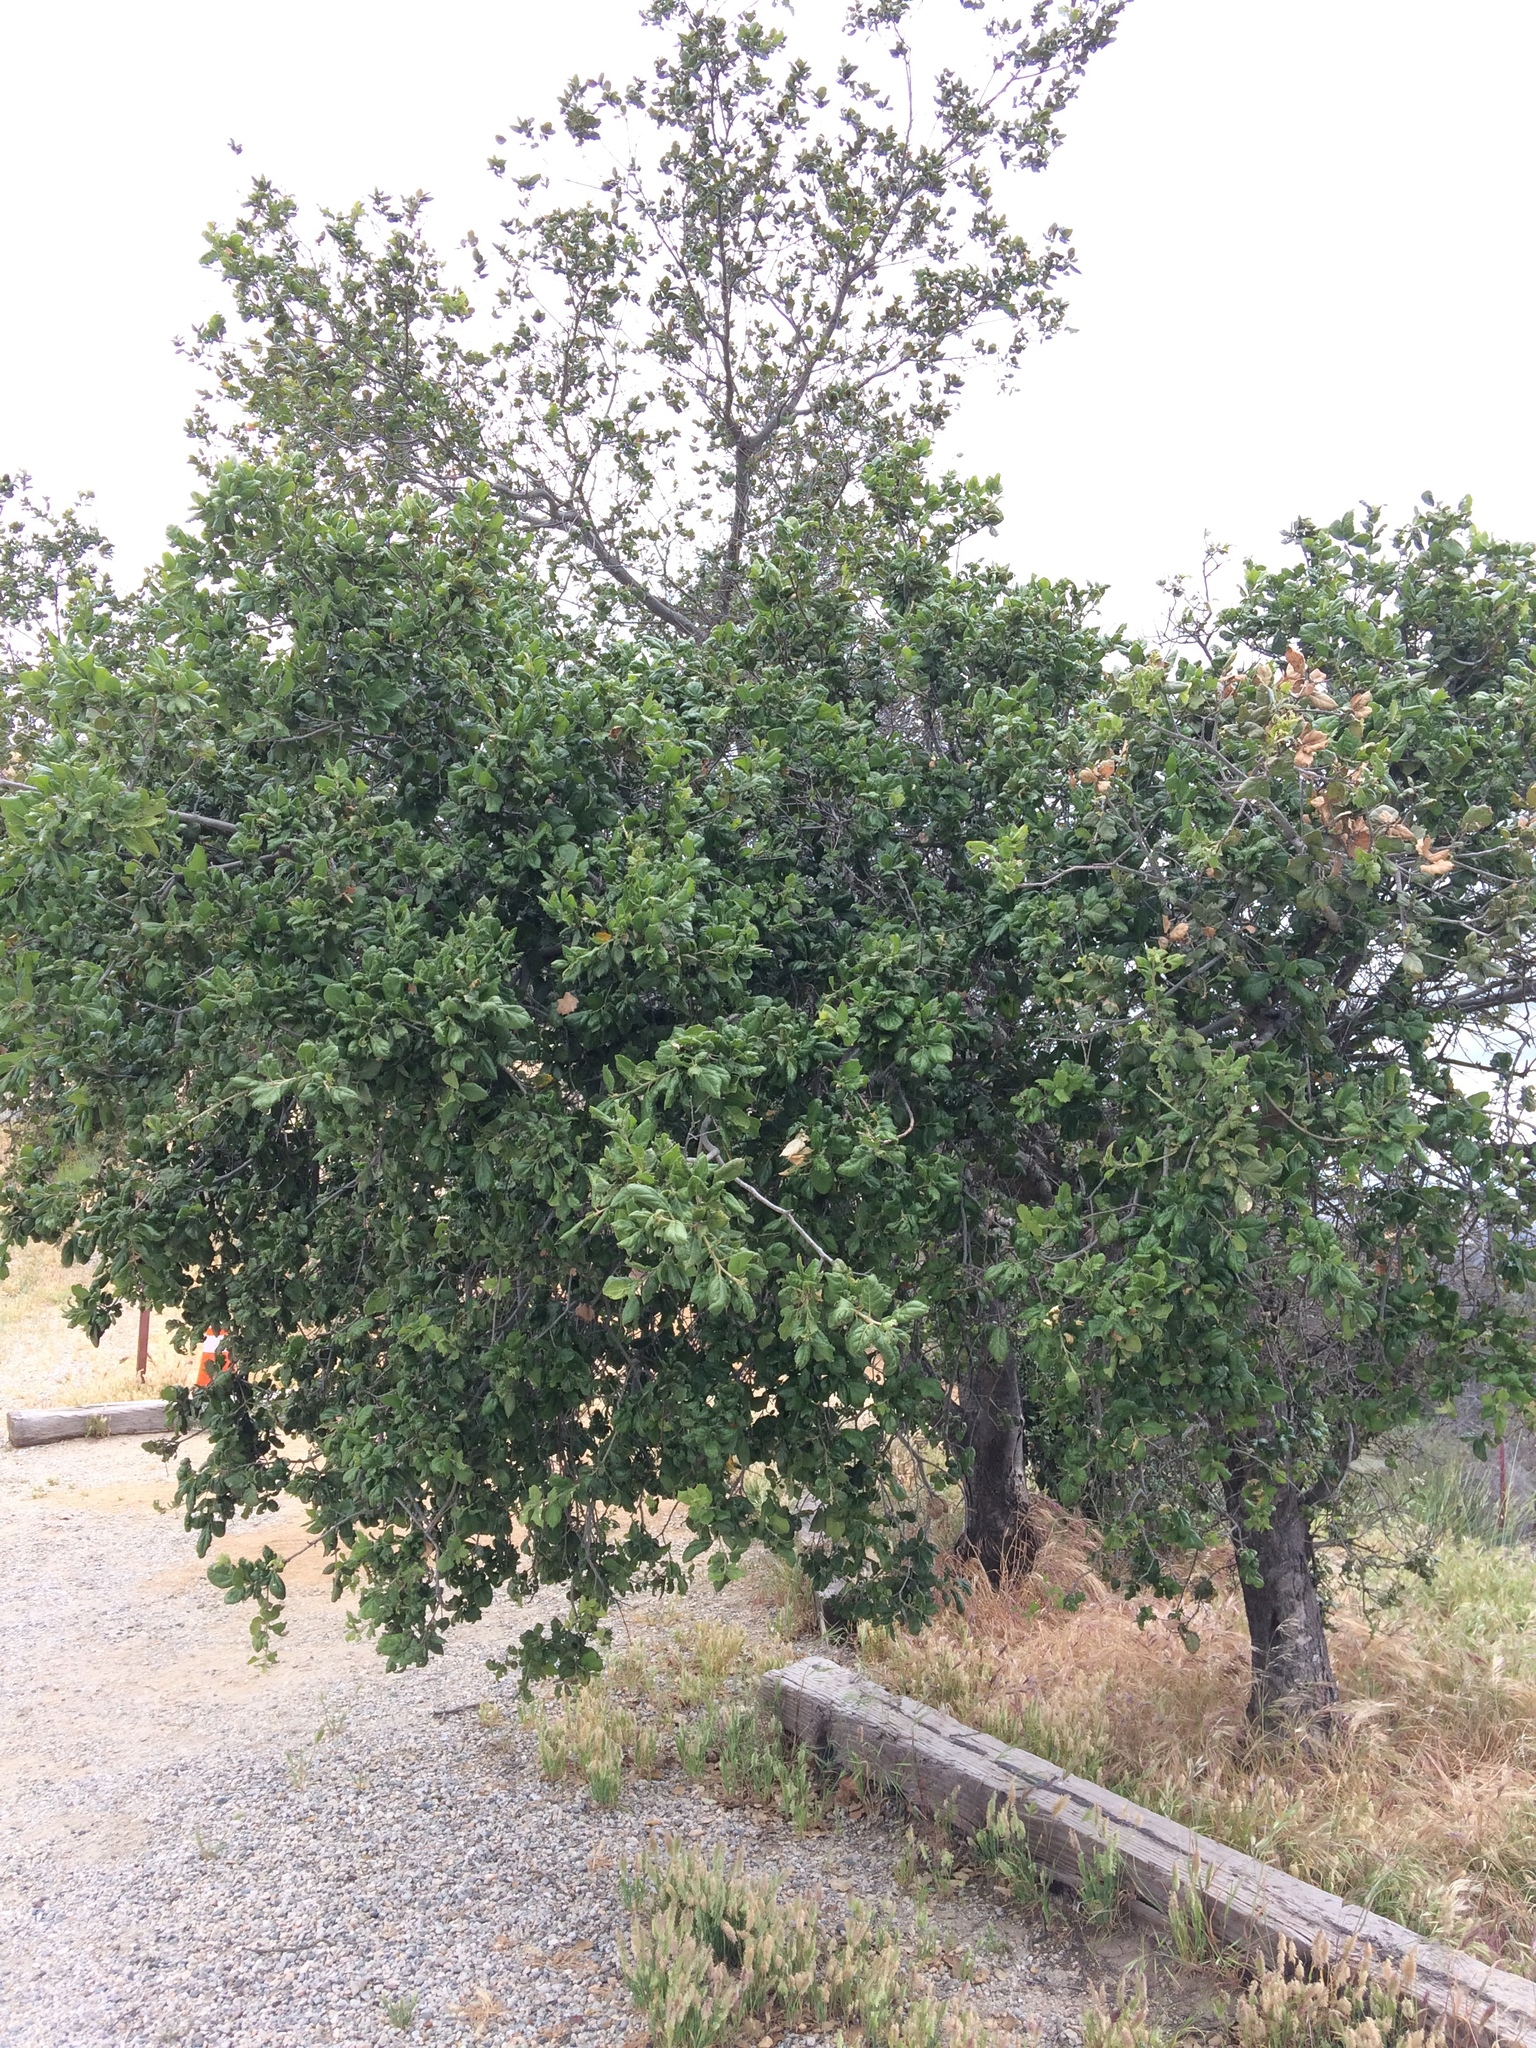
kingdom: Plantae
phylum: Tracheophyta
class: Magnoliopsida
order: Fagales
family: Fagaceae
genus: Quercus
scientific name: Quercus agrifolia
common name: California live oak
